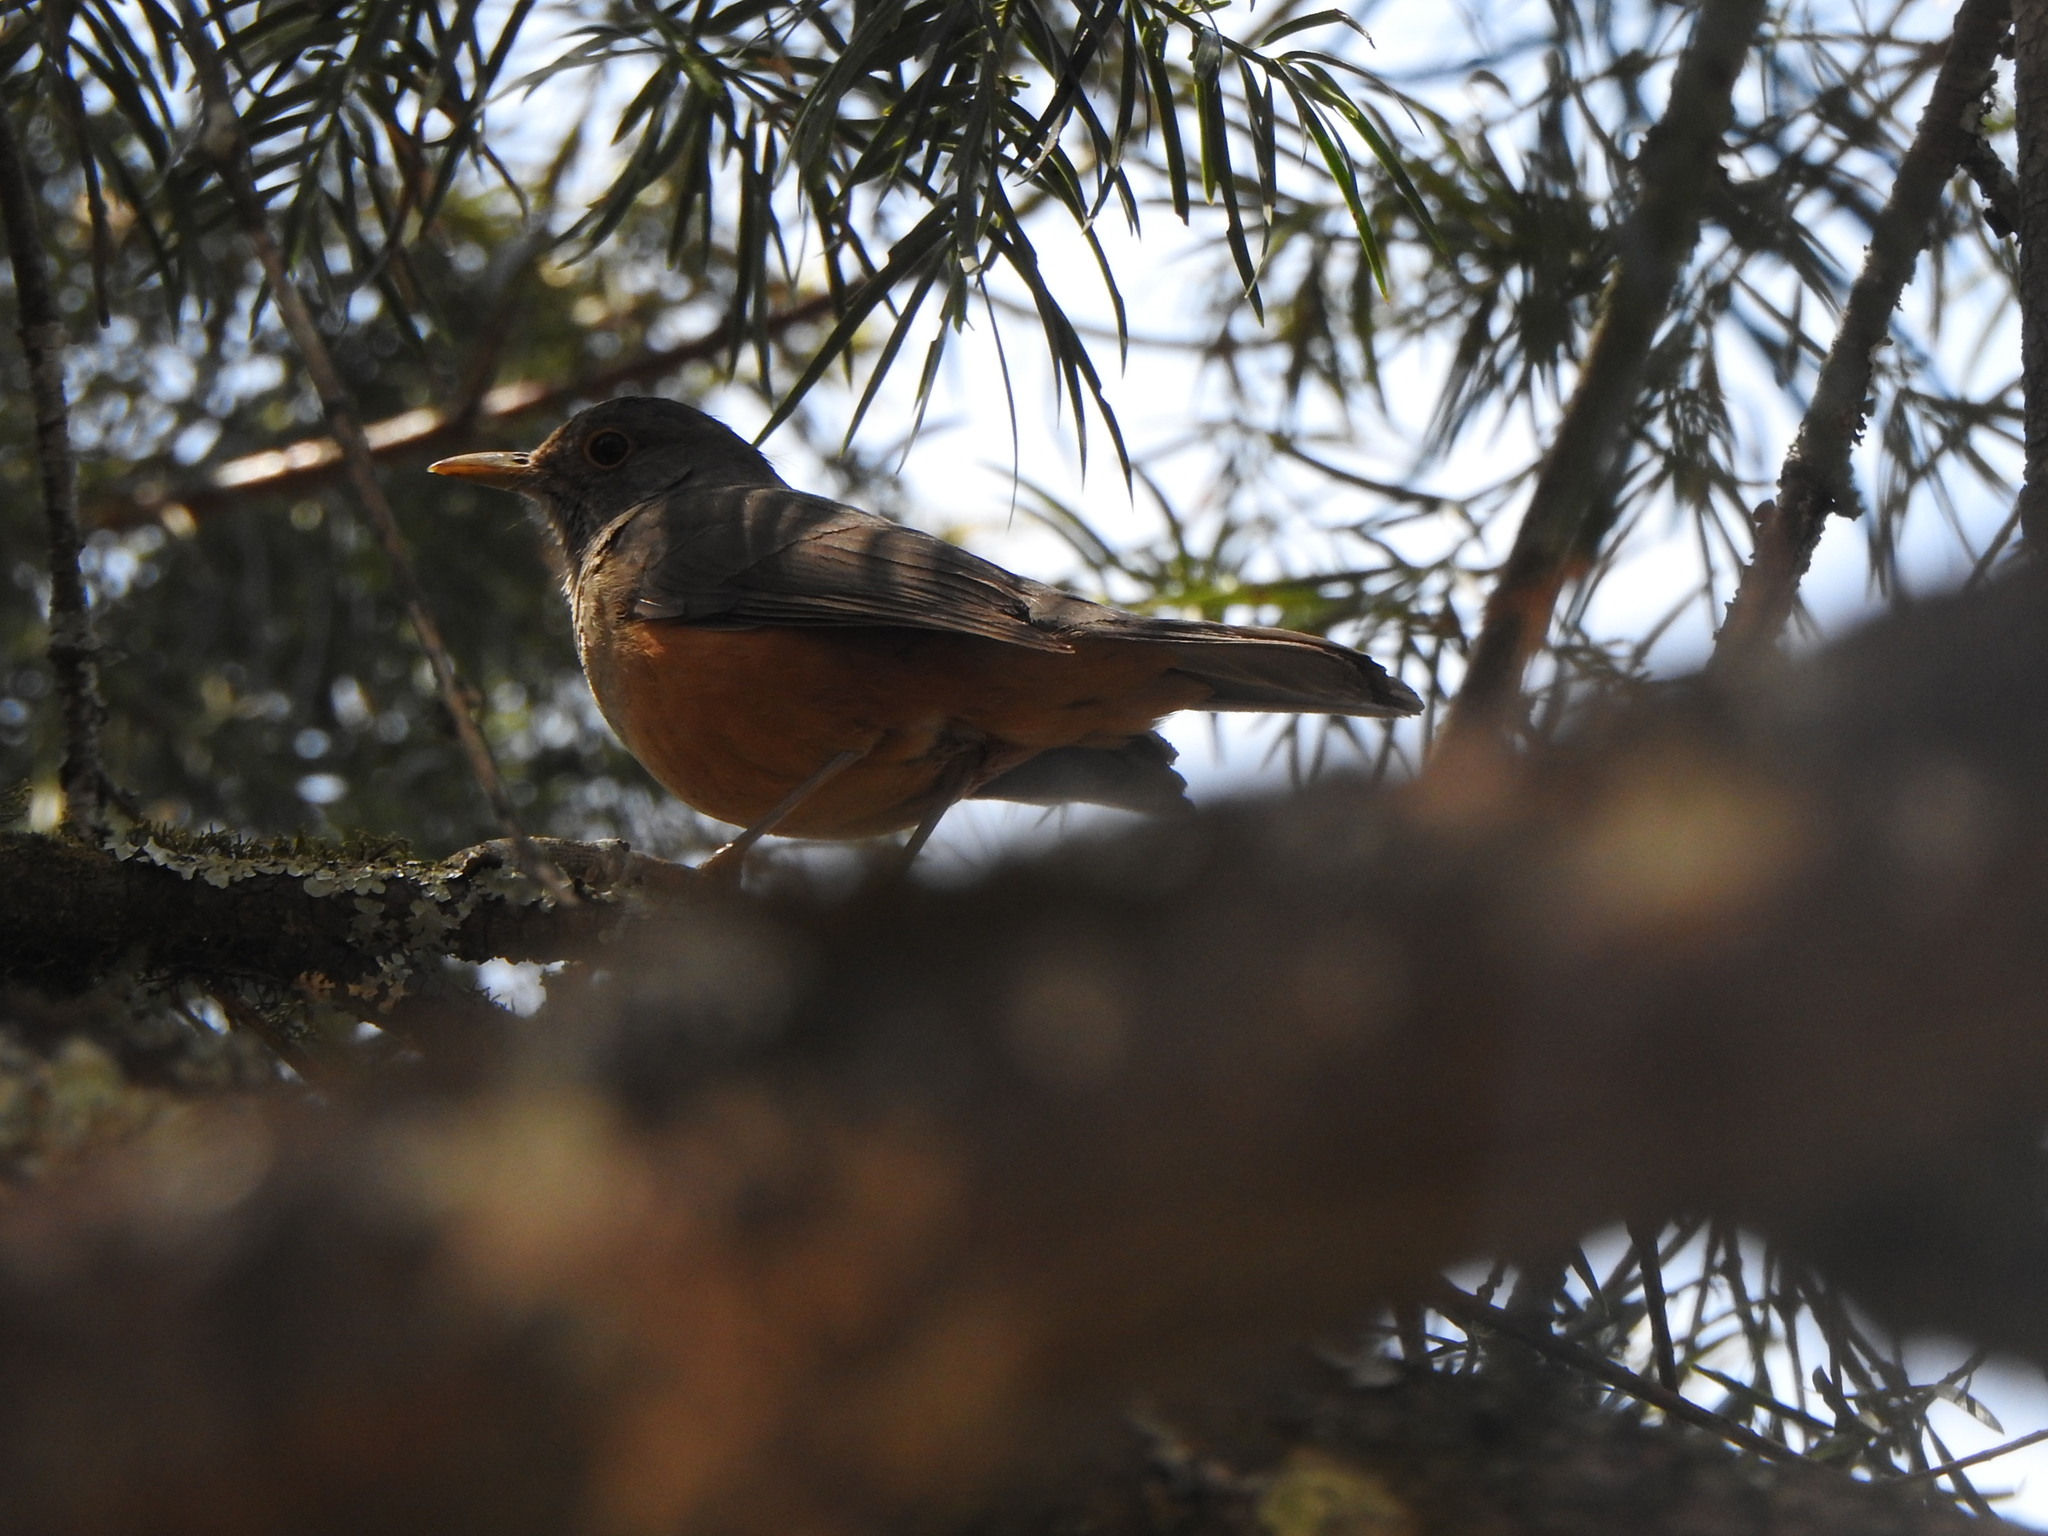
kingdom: Animalia
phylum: Chordata
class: Aves
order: Passeriformes
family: Turdidae
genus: Turdus
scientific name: Turdus rufiventris
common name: Rufous-bellied thrush
